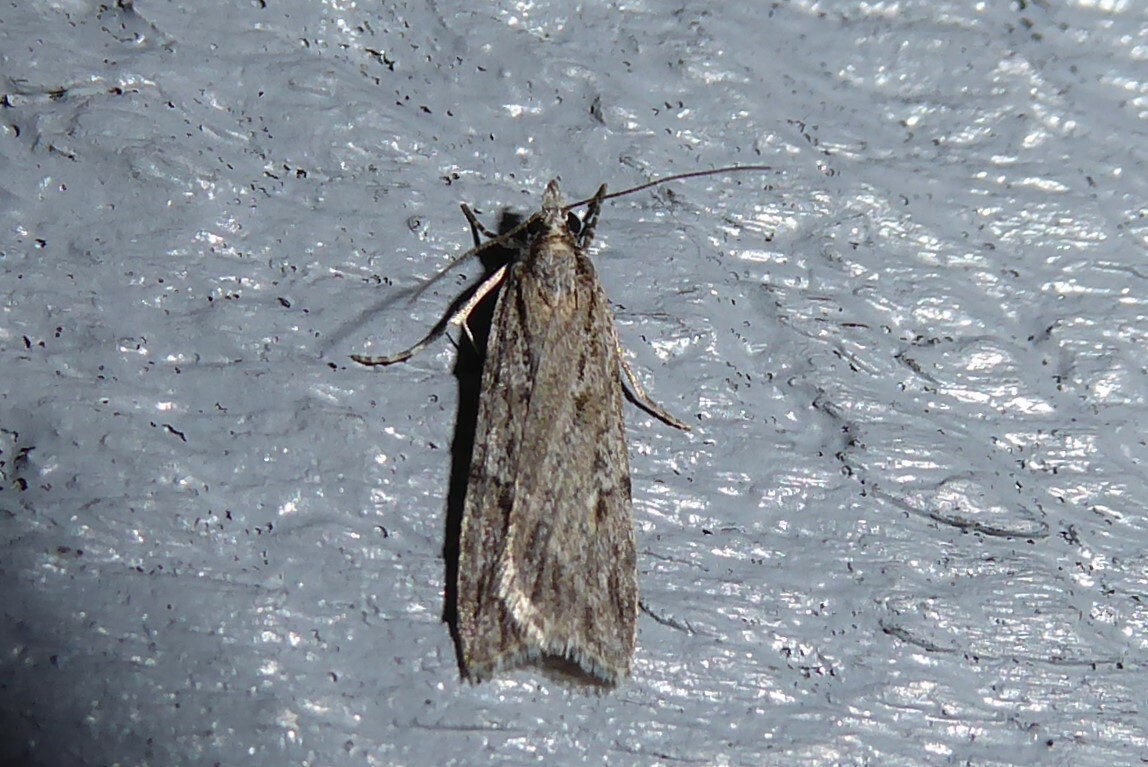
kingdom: Animalia
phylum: Arthropoda
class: Insecta
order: Lepidoptera
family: Crambidae
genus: Scoparia
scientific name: Scoparia chalicodes
